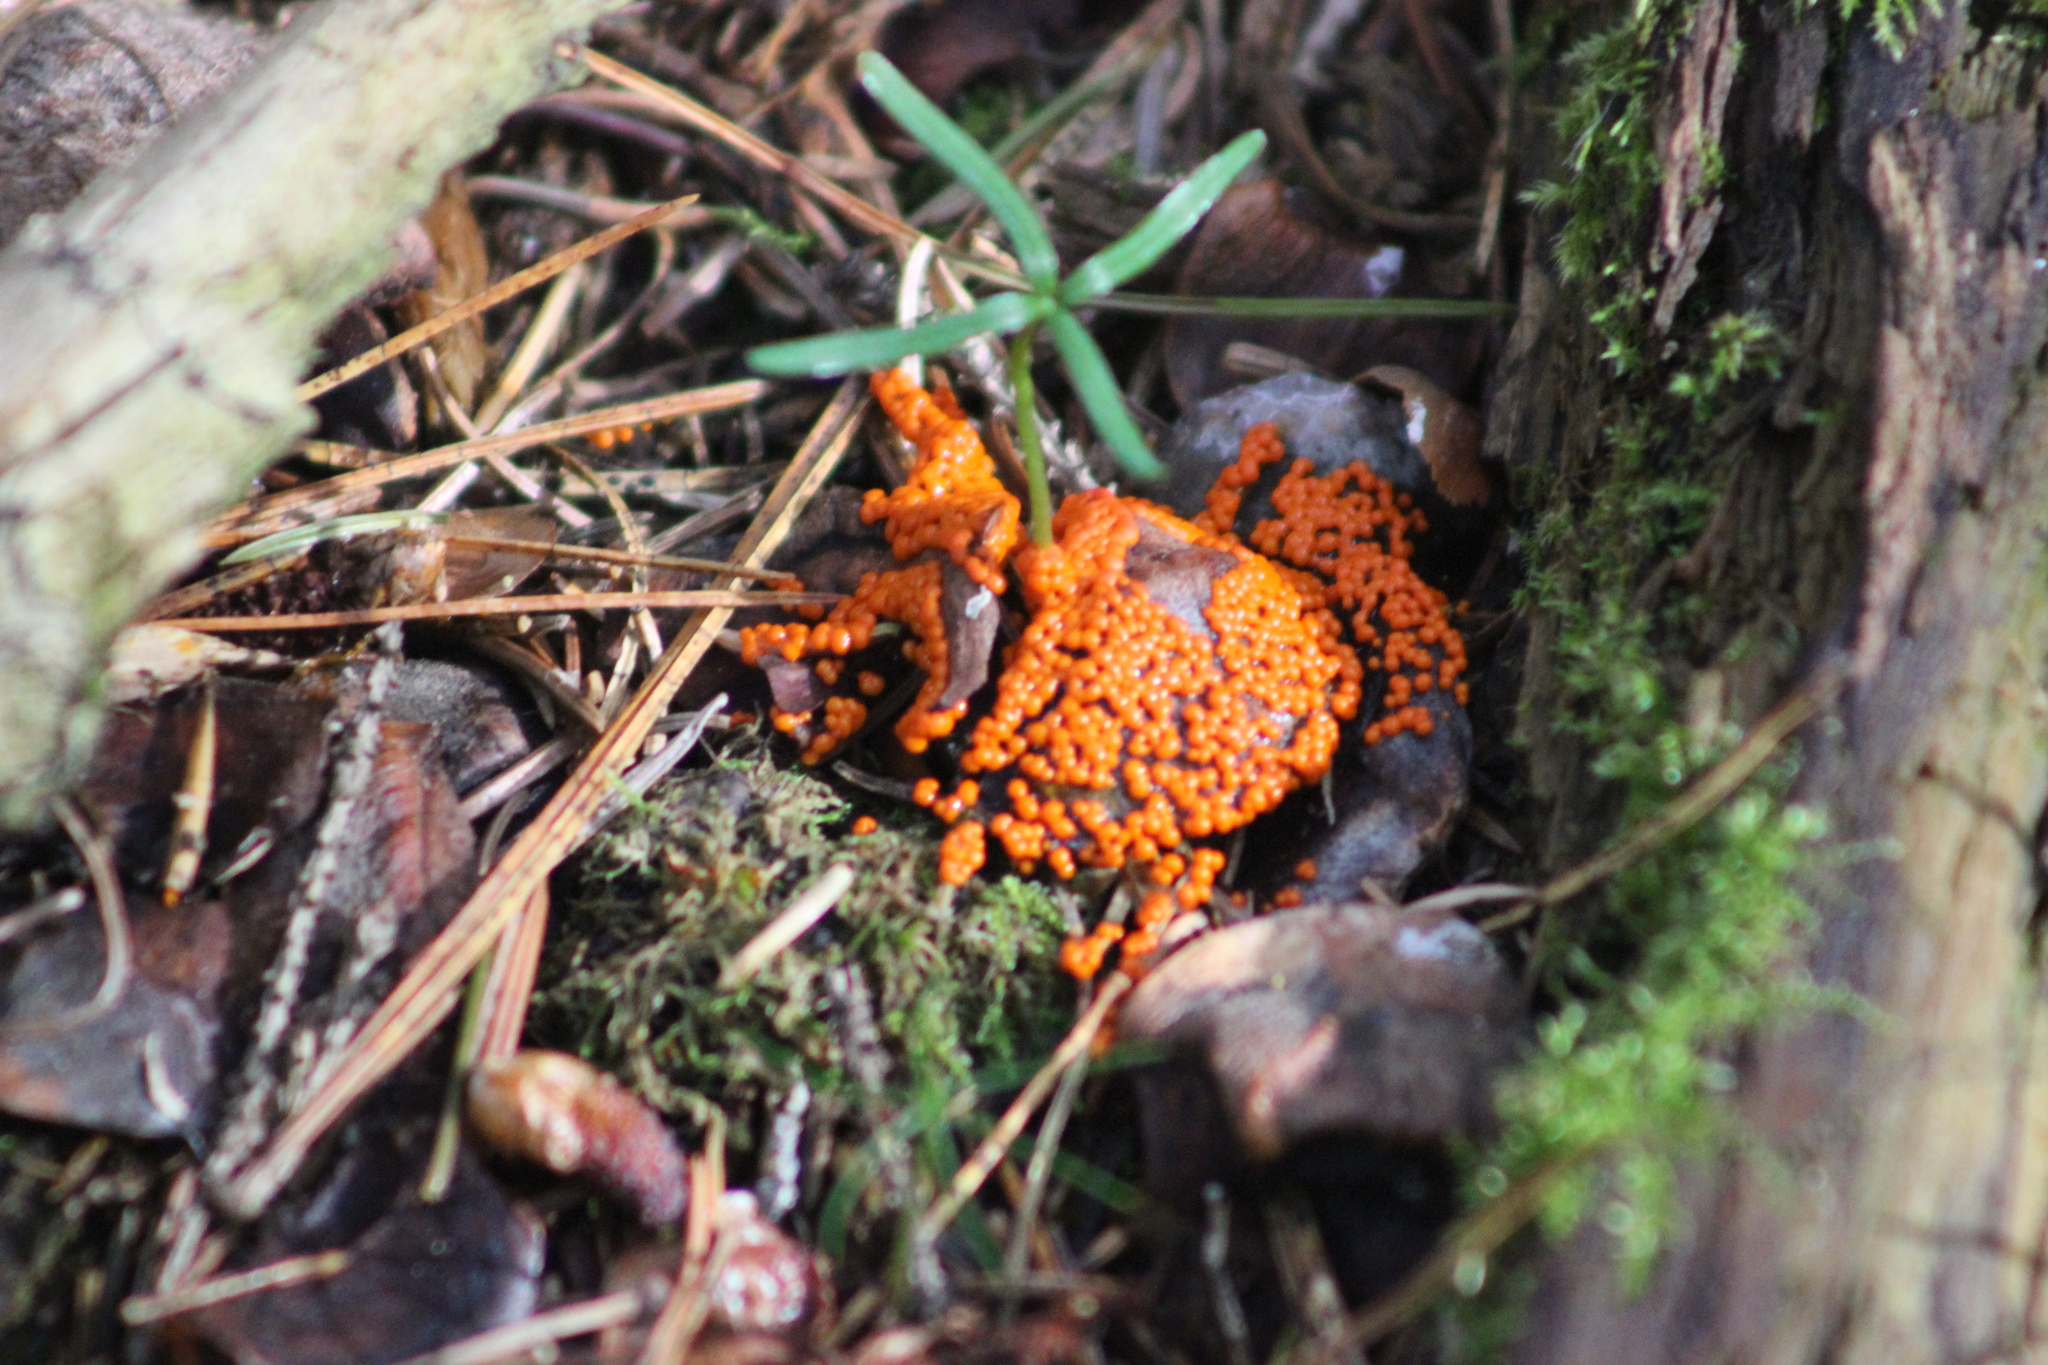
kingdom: Protozoa
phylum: Mycetozoa
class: Myxomycetes
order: Trichiales
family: Trichiaceae
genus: Trichia
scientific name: Trichia varia
